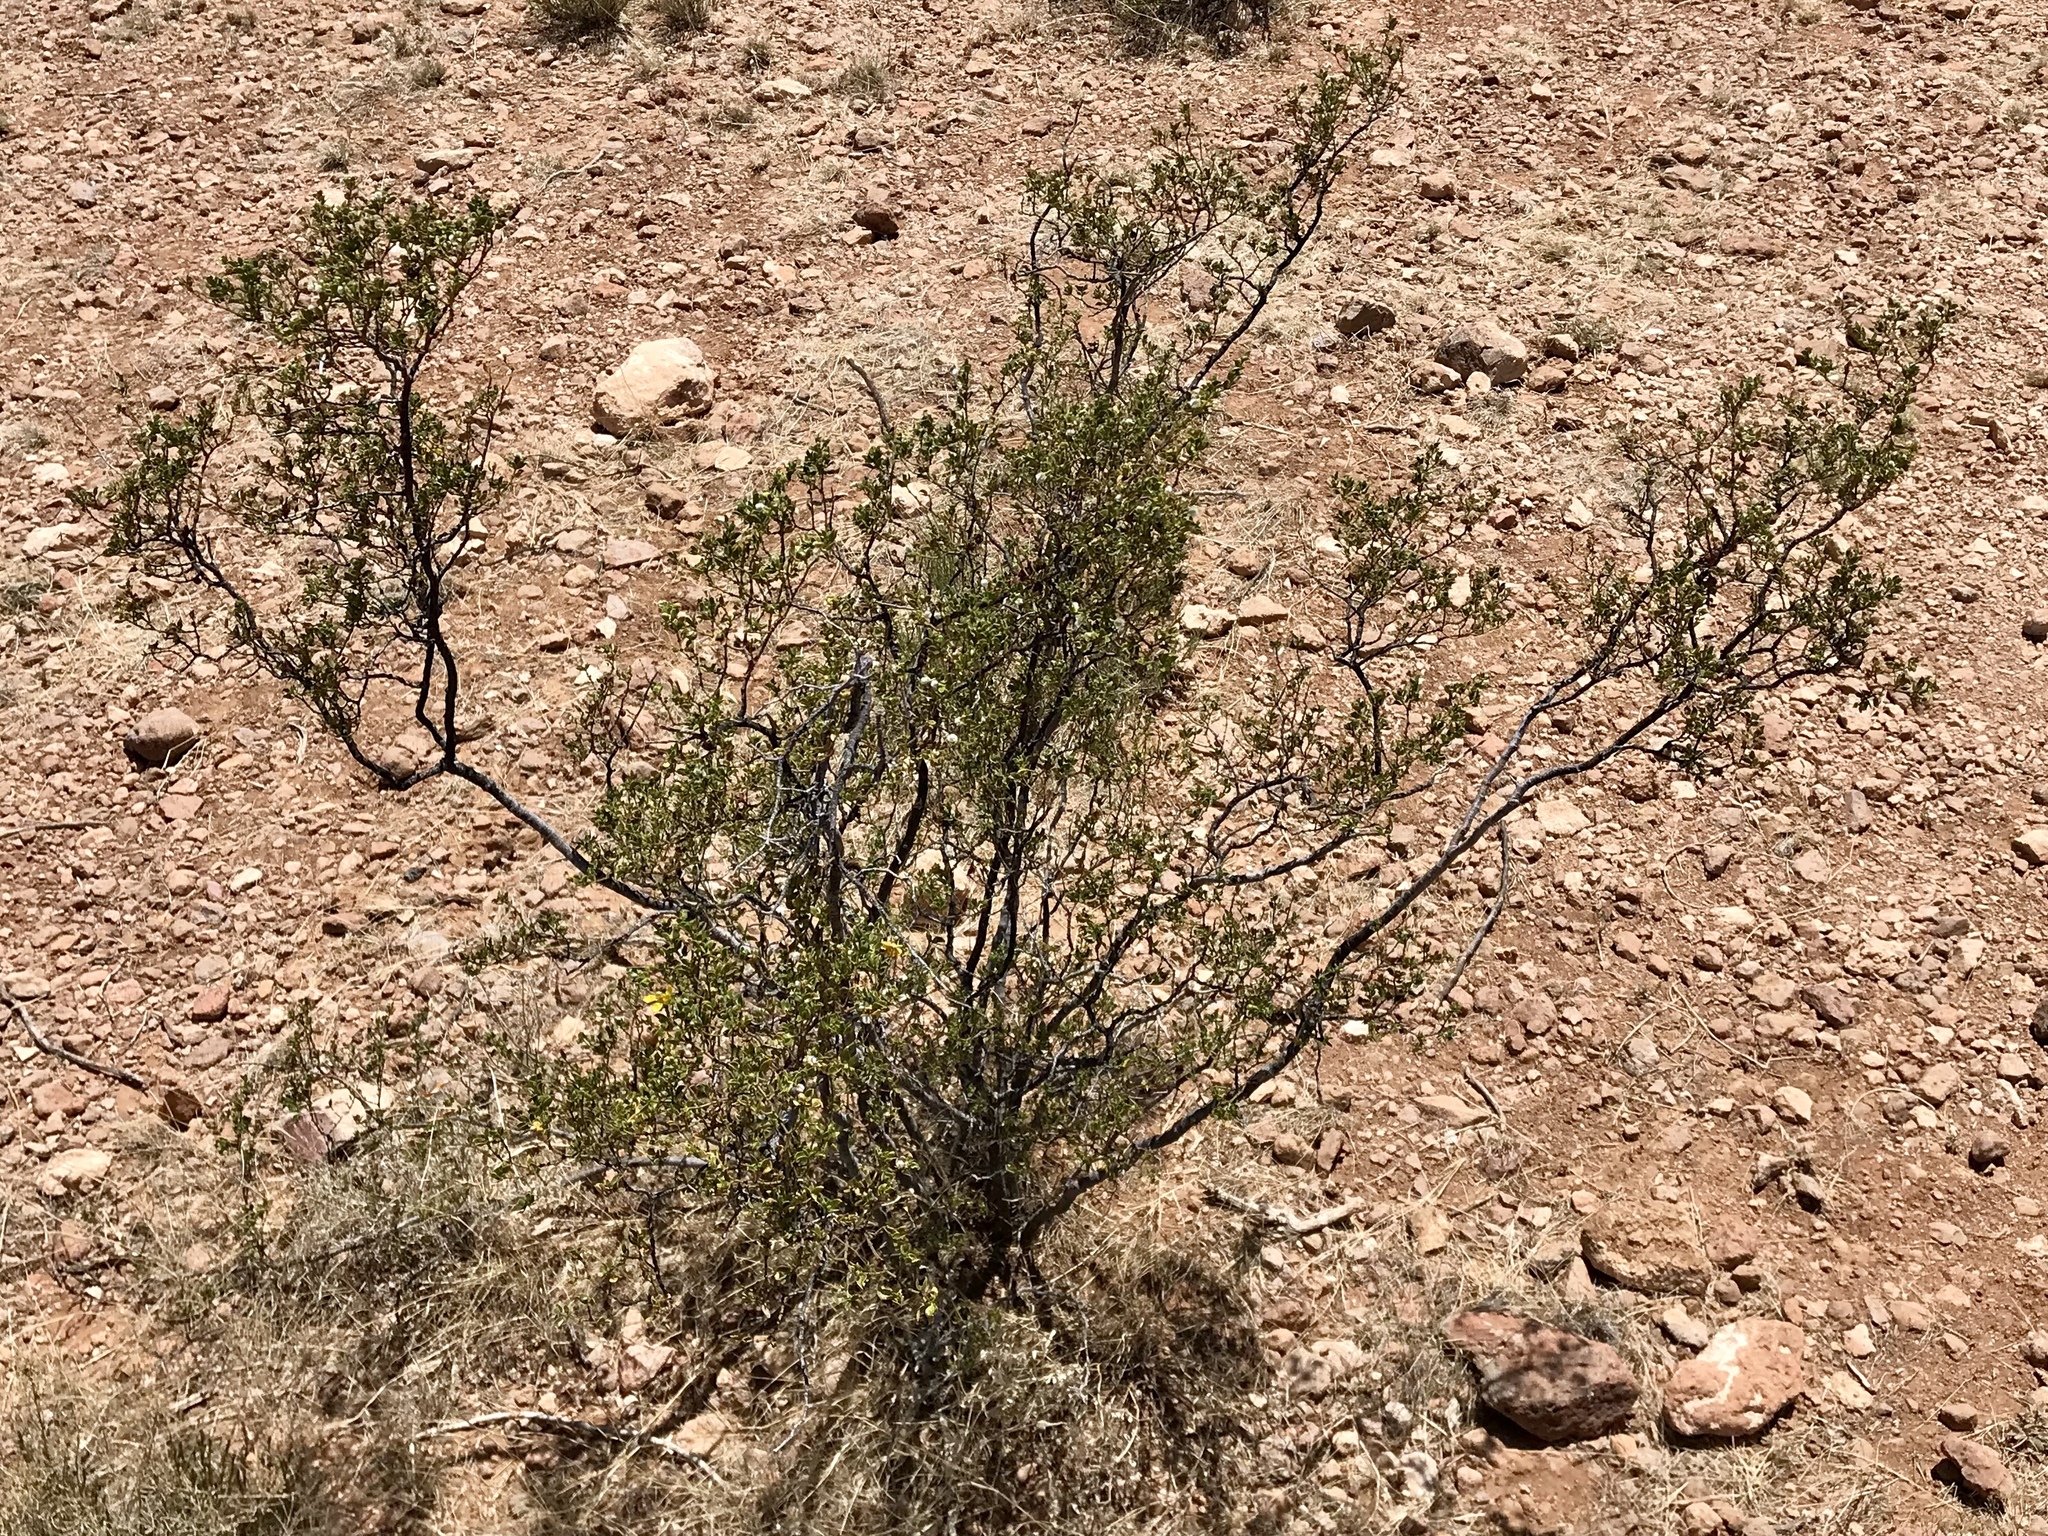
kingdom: Plantae
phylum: Tracheophyta
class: Magnoliopsida
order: Zygophyllales
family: Zygophyllaceae
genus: Larrea
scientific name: Larrea tridentata
